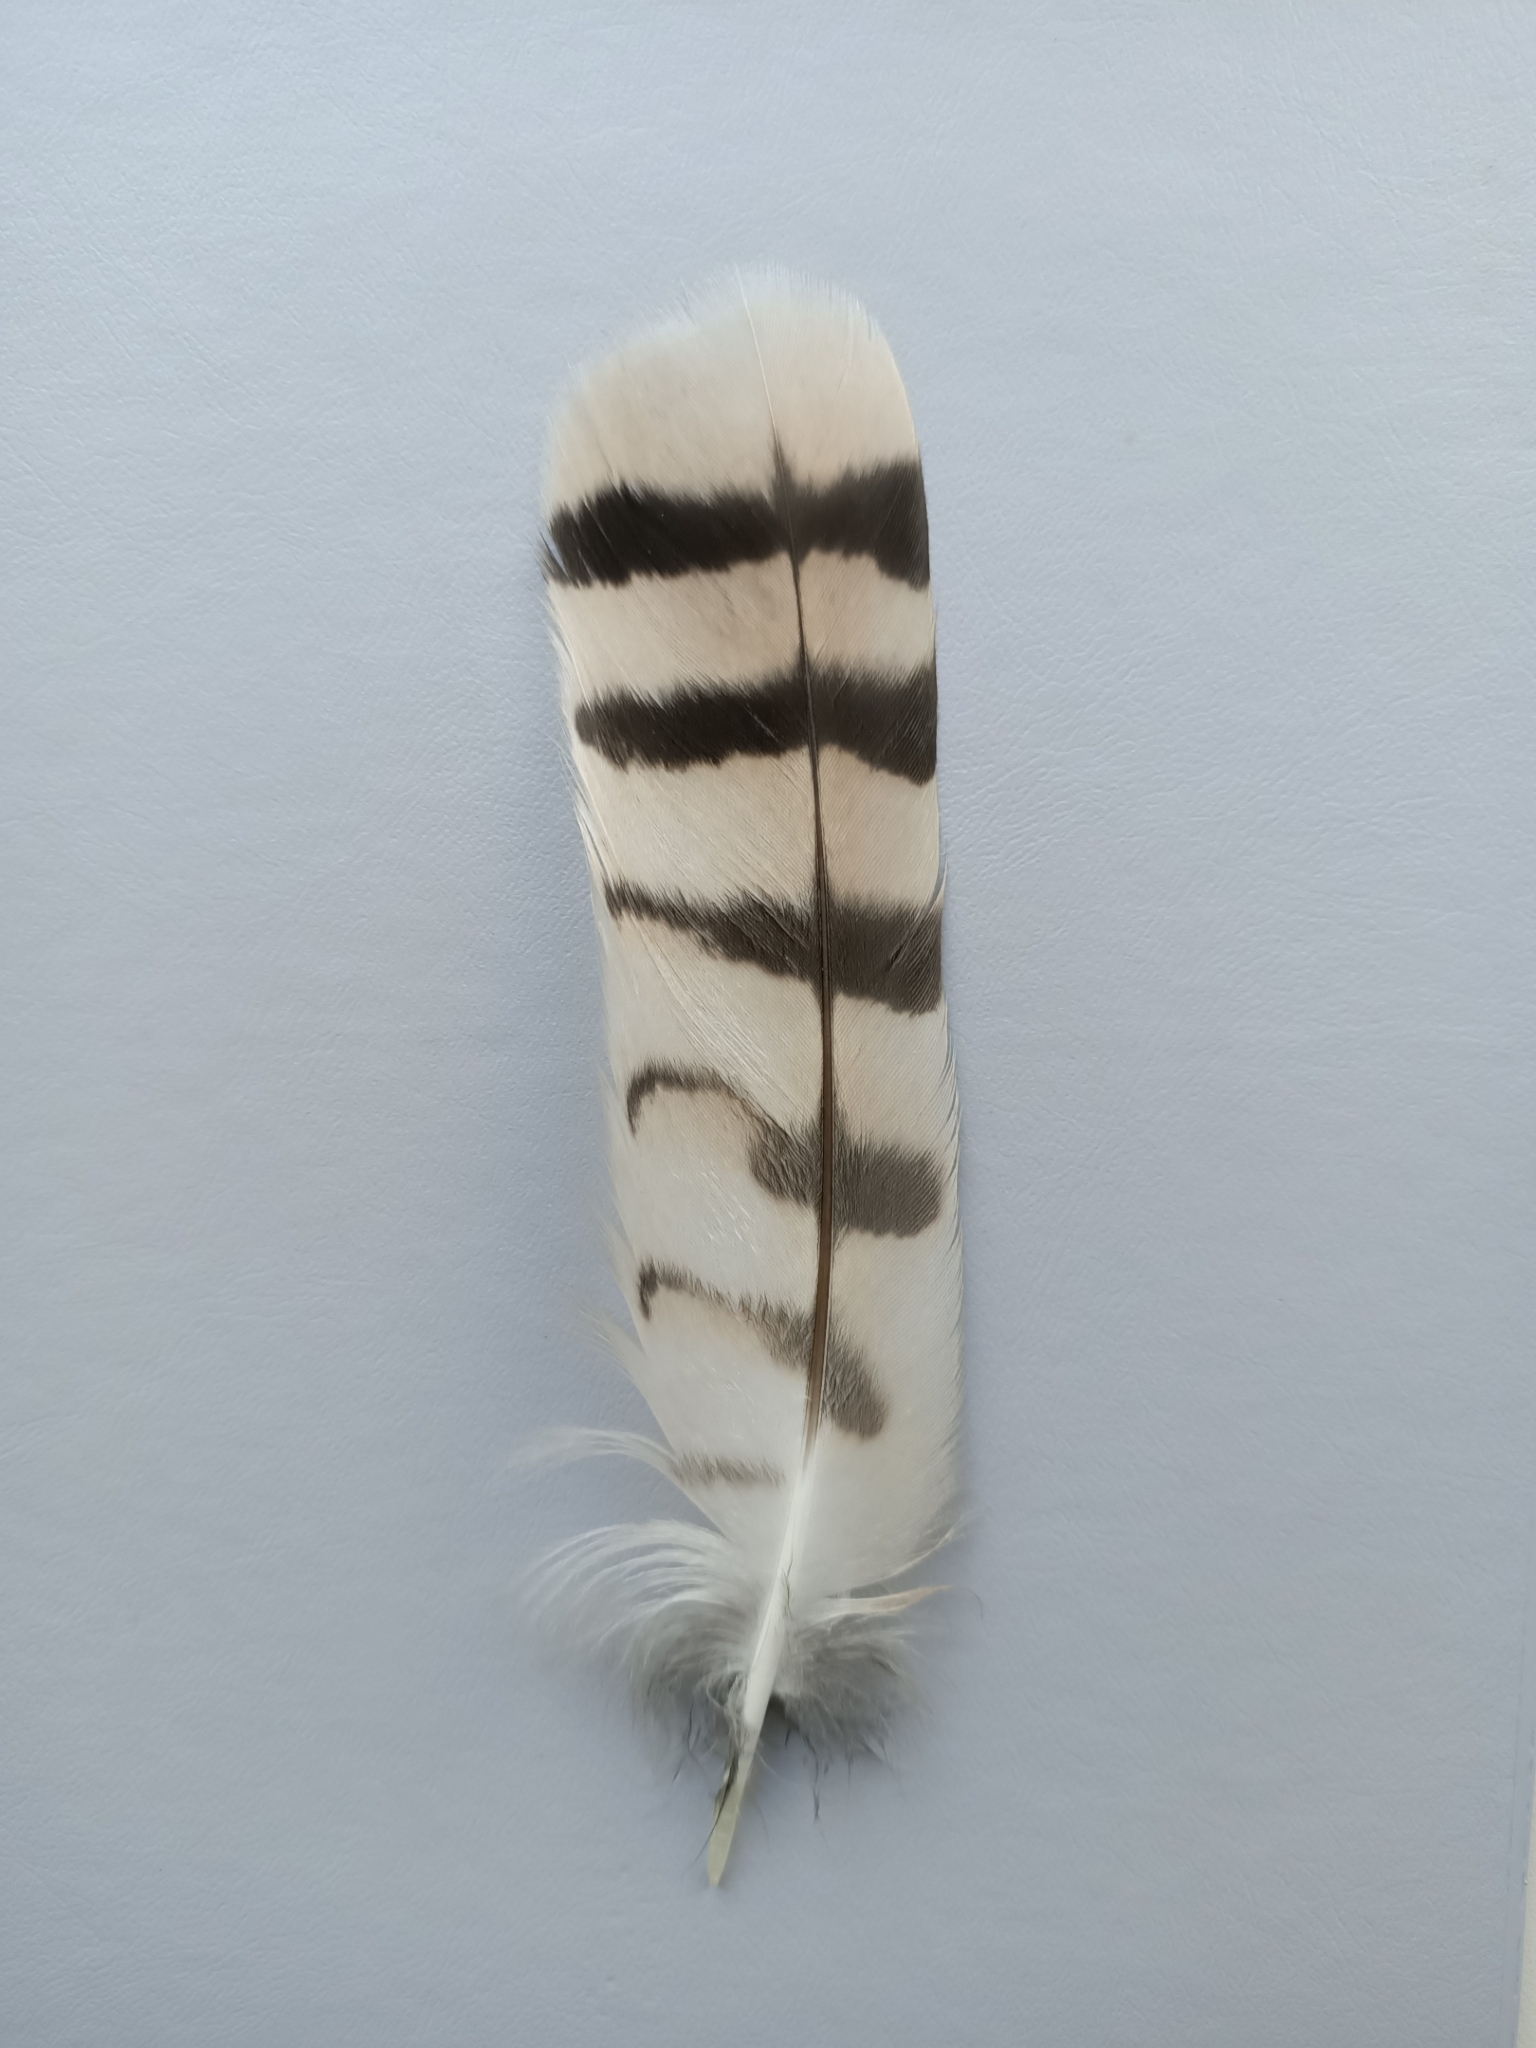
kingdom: Animalia
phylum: Chordata
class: Aves
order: Strigiformes
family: Strigidae
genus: Asio
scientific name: Asio flammeus
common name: Short-eared owl
